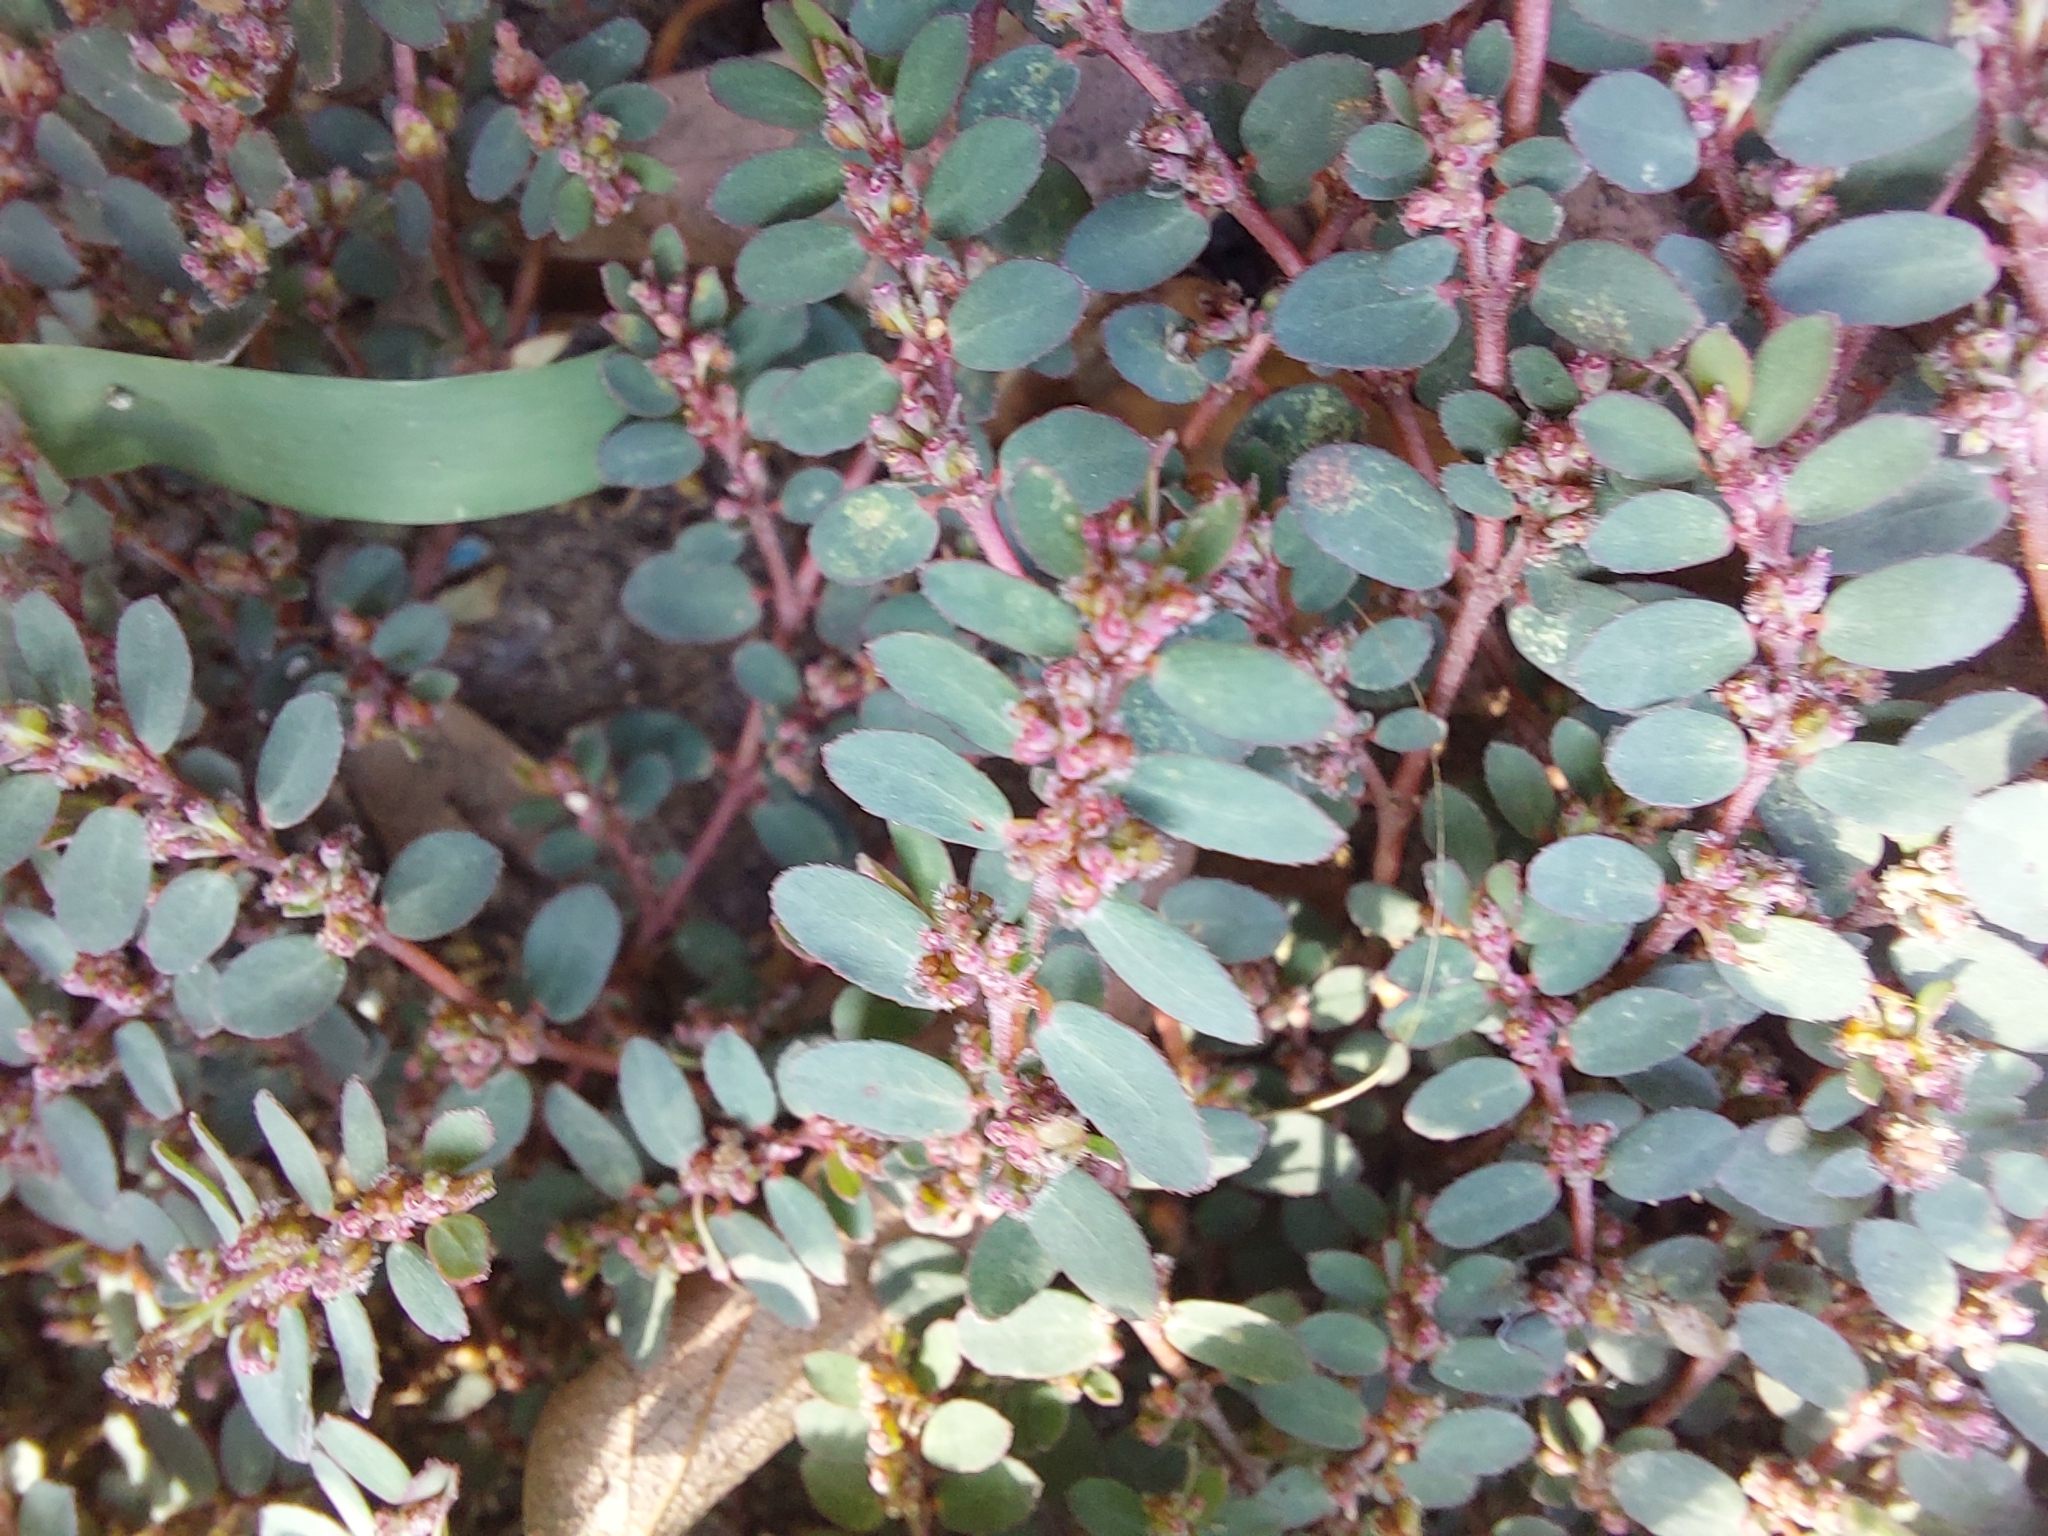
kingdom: Plantae
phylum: Tracheophyta
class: Magnoliopsida
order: Malpighiales
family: Euphorbiaceae
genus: Euphorbia
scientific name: Euphorbia prostrata
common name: Prostrate sandmat
